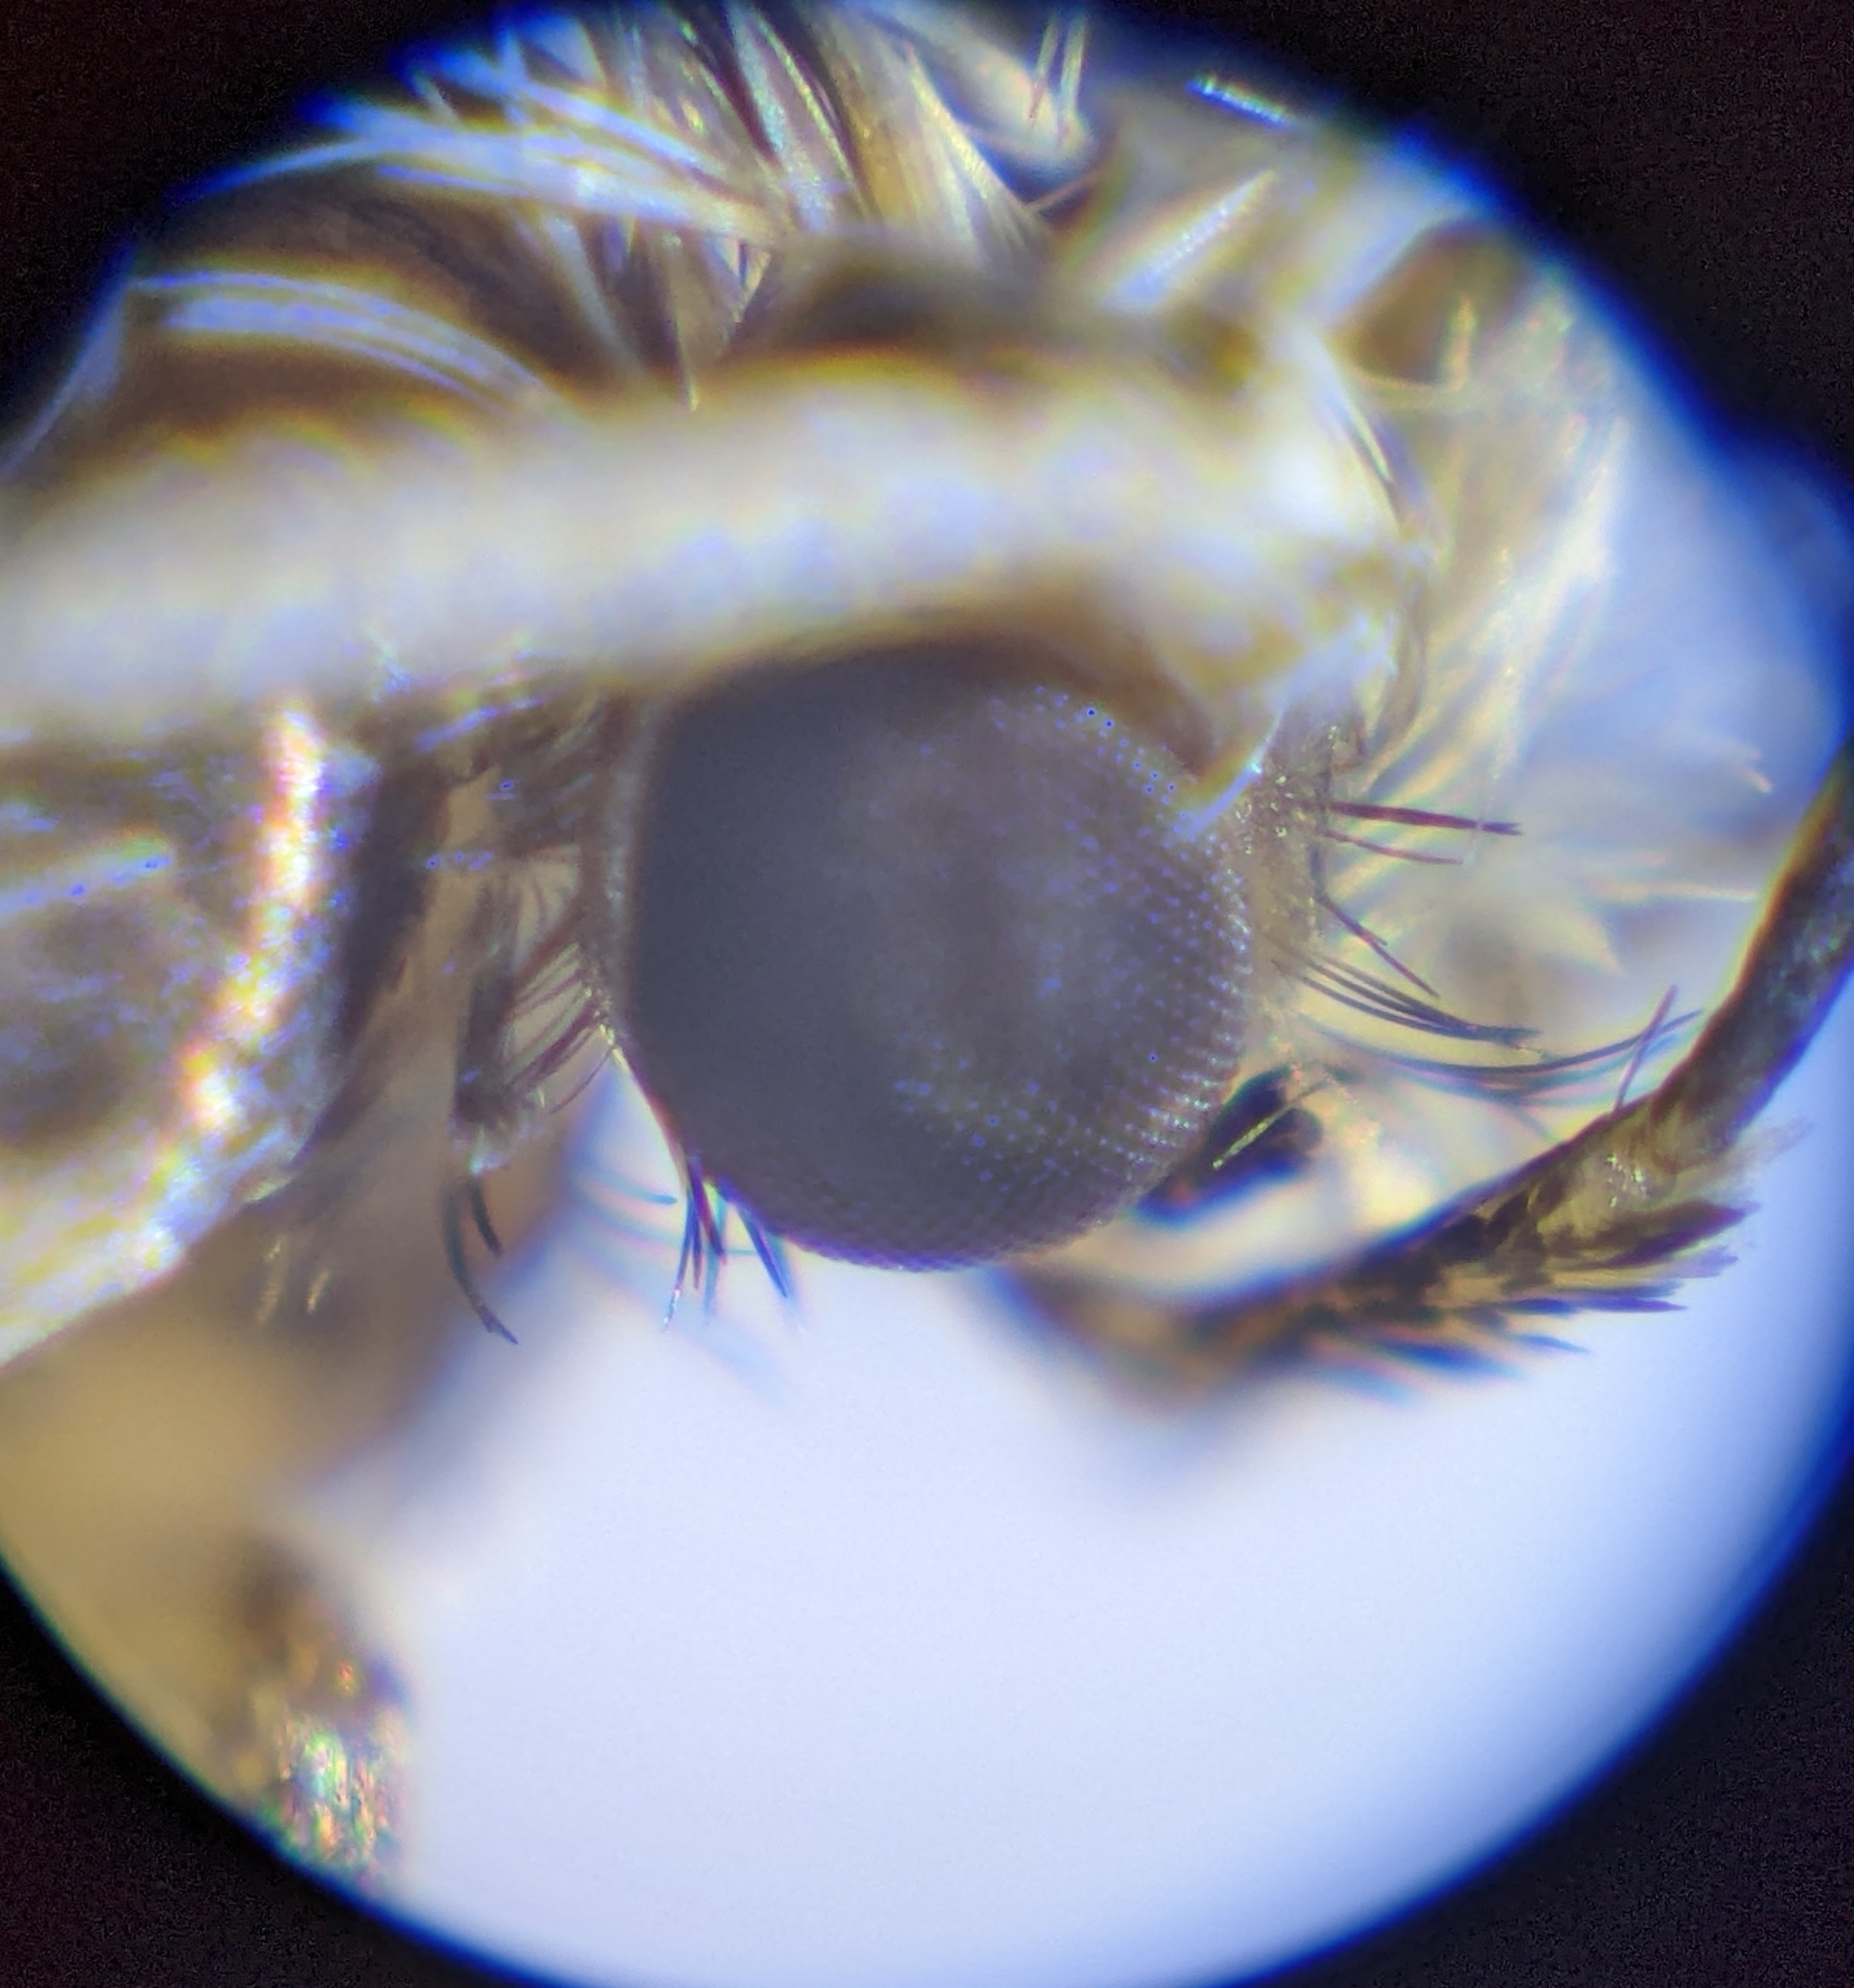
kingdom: Animalia
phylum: Arthropoda
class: Insecta
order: Lepidoptera
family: Tineidae
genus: Nemapogon
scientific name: Nemapogon granella
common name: European grain moth
